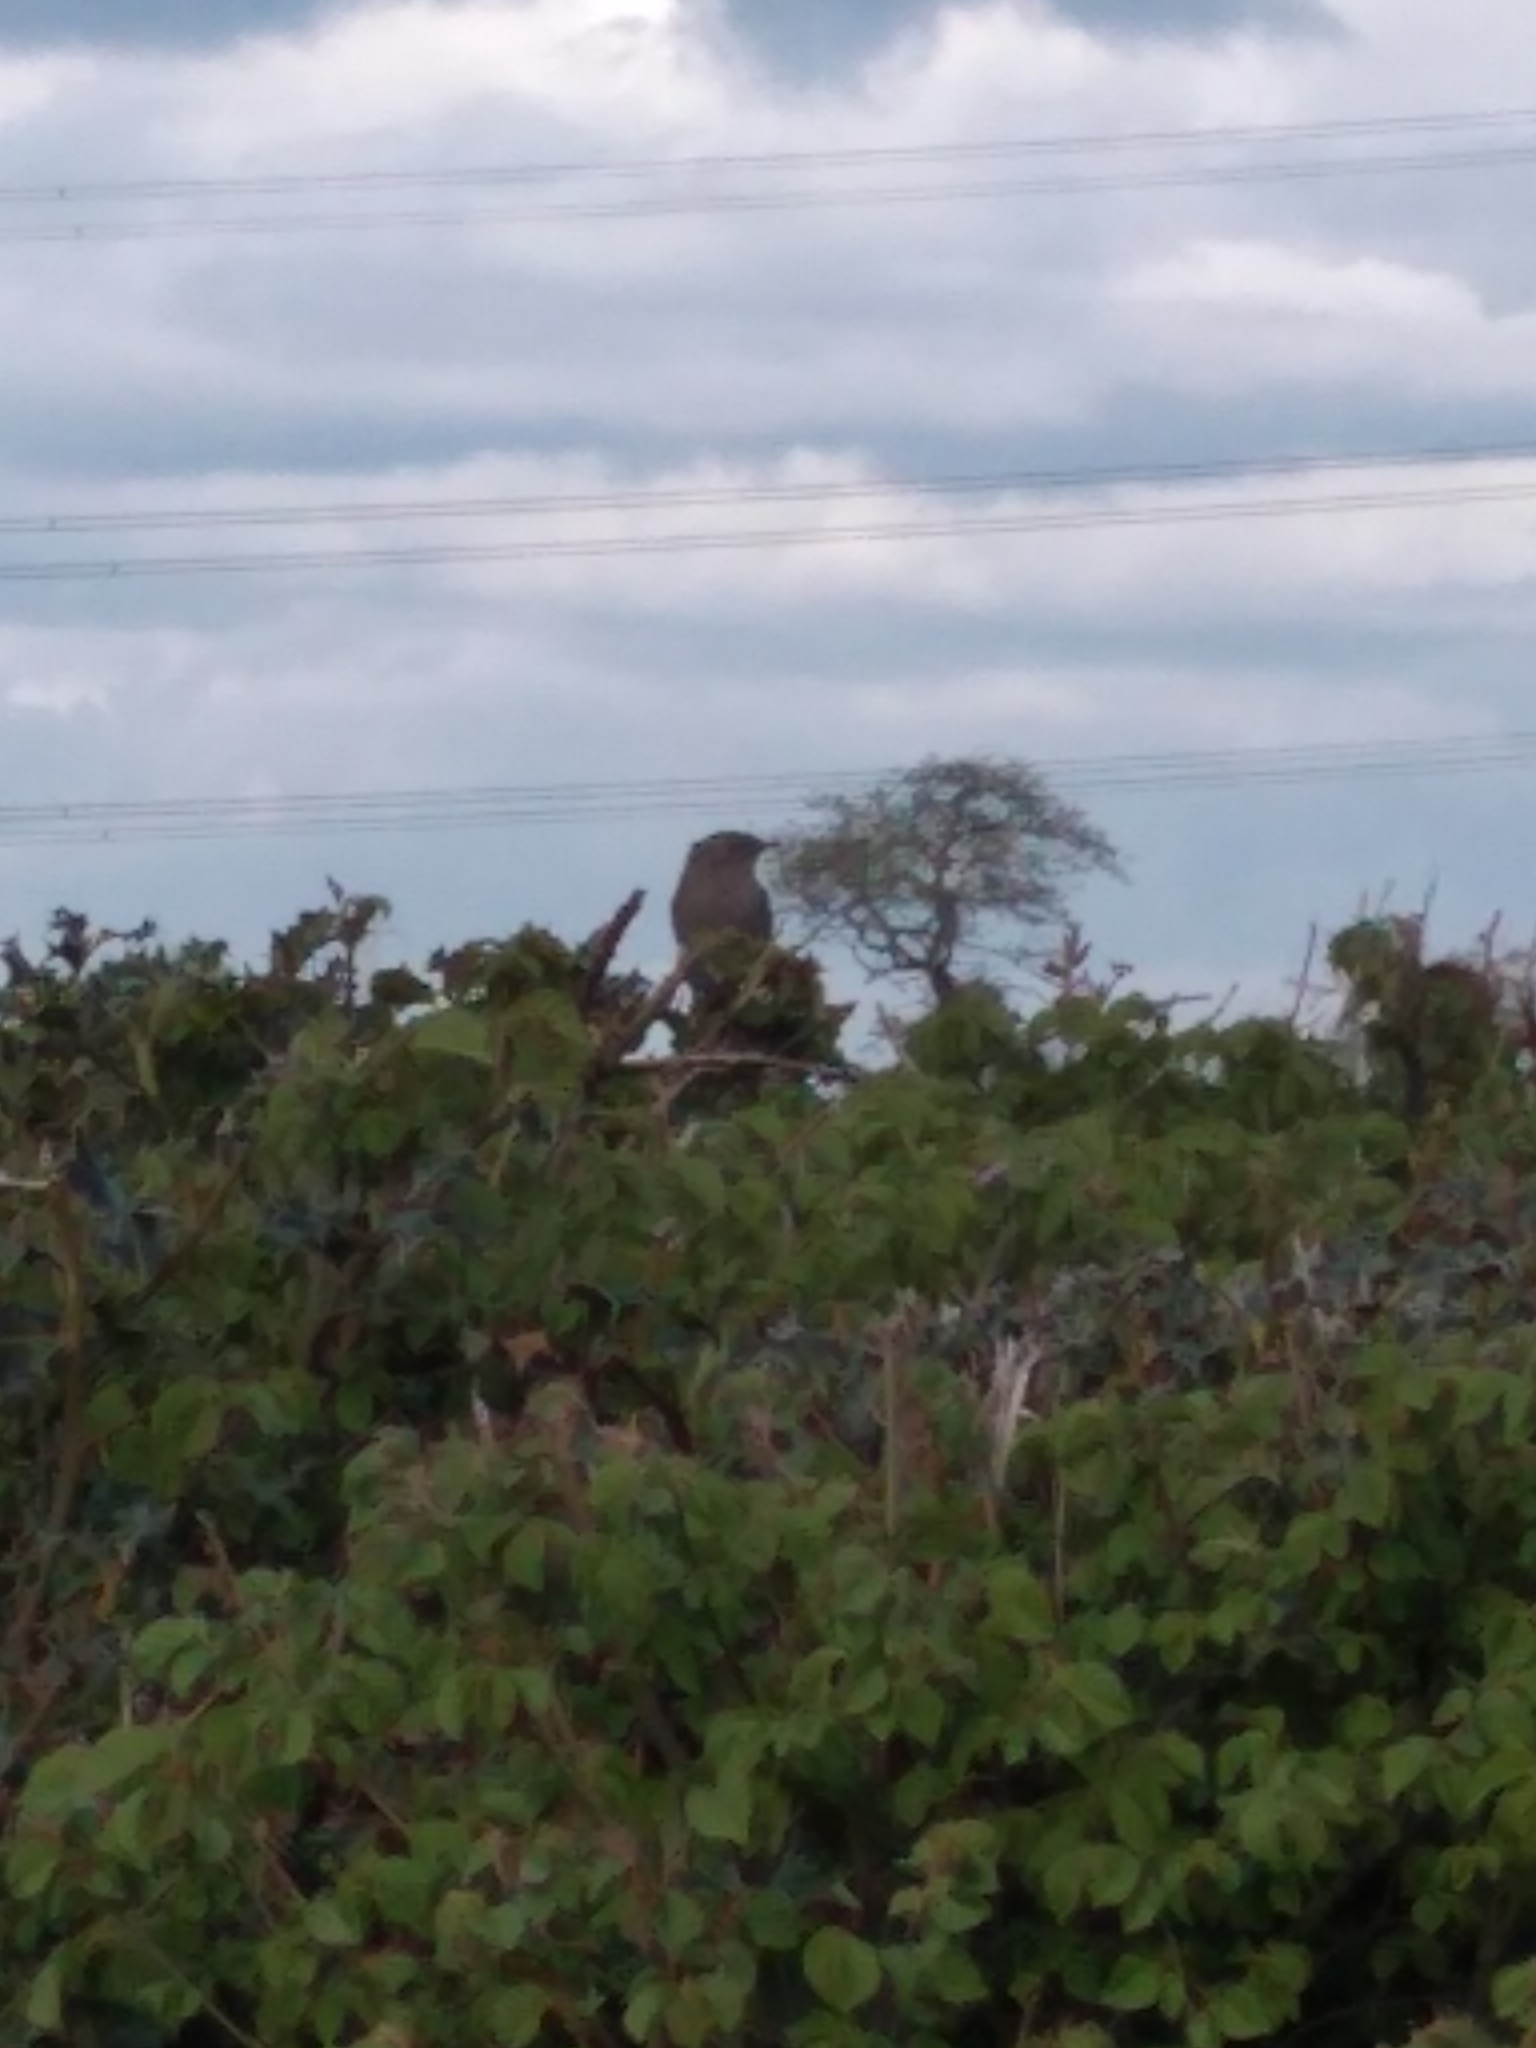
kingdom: Animalia
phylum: Chordata
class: Aves
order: Passeriformes
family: Prunellidae
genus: Prunella
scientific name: Prunella modularis
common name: Dunnock
